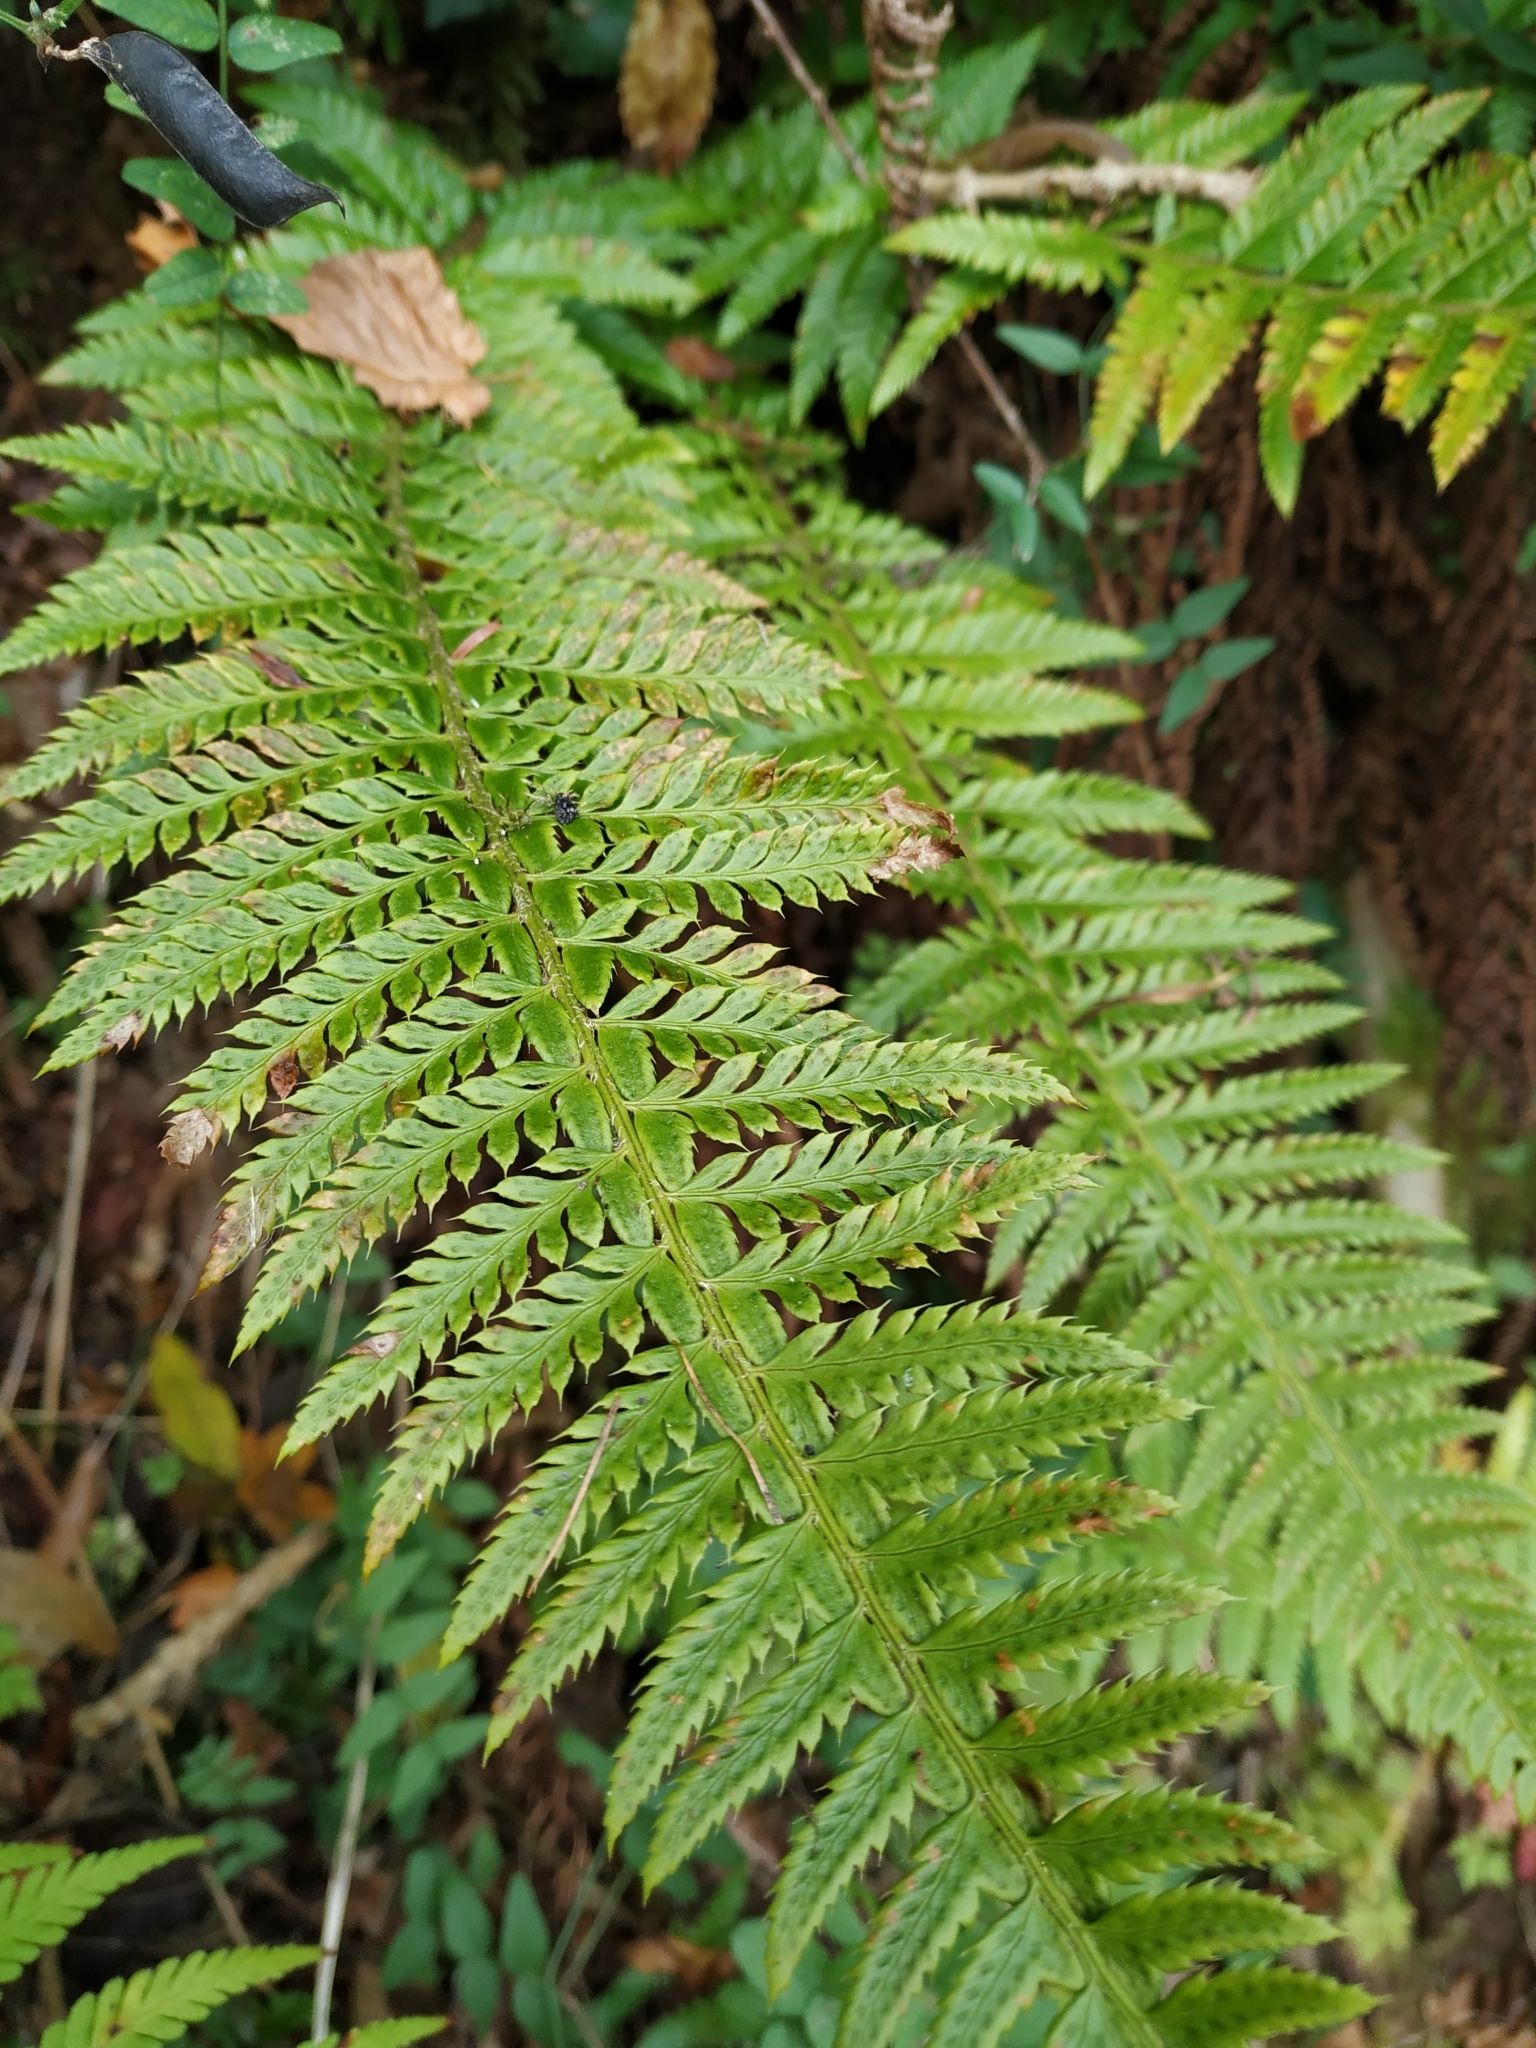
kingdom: Plantae
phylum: Tracheophyta
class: Polypodiopsida
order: Polypodiales
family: Dryopteridaceae
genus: Polystichum
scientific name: Polystichum aculeatum
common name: Hard shield-fern
